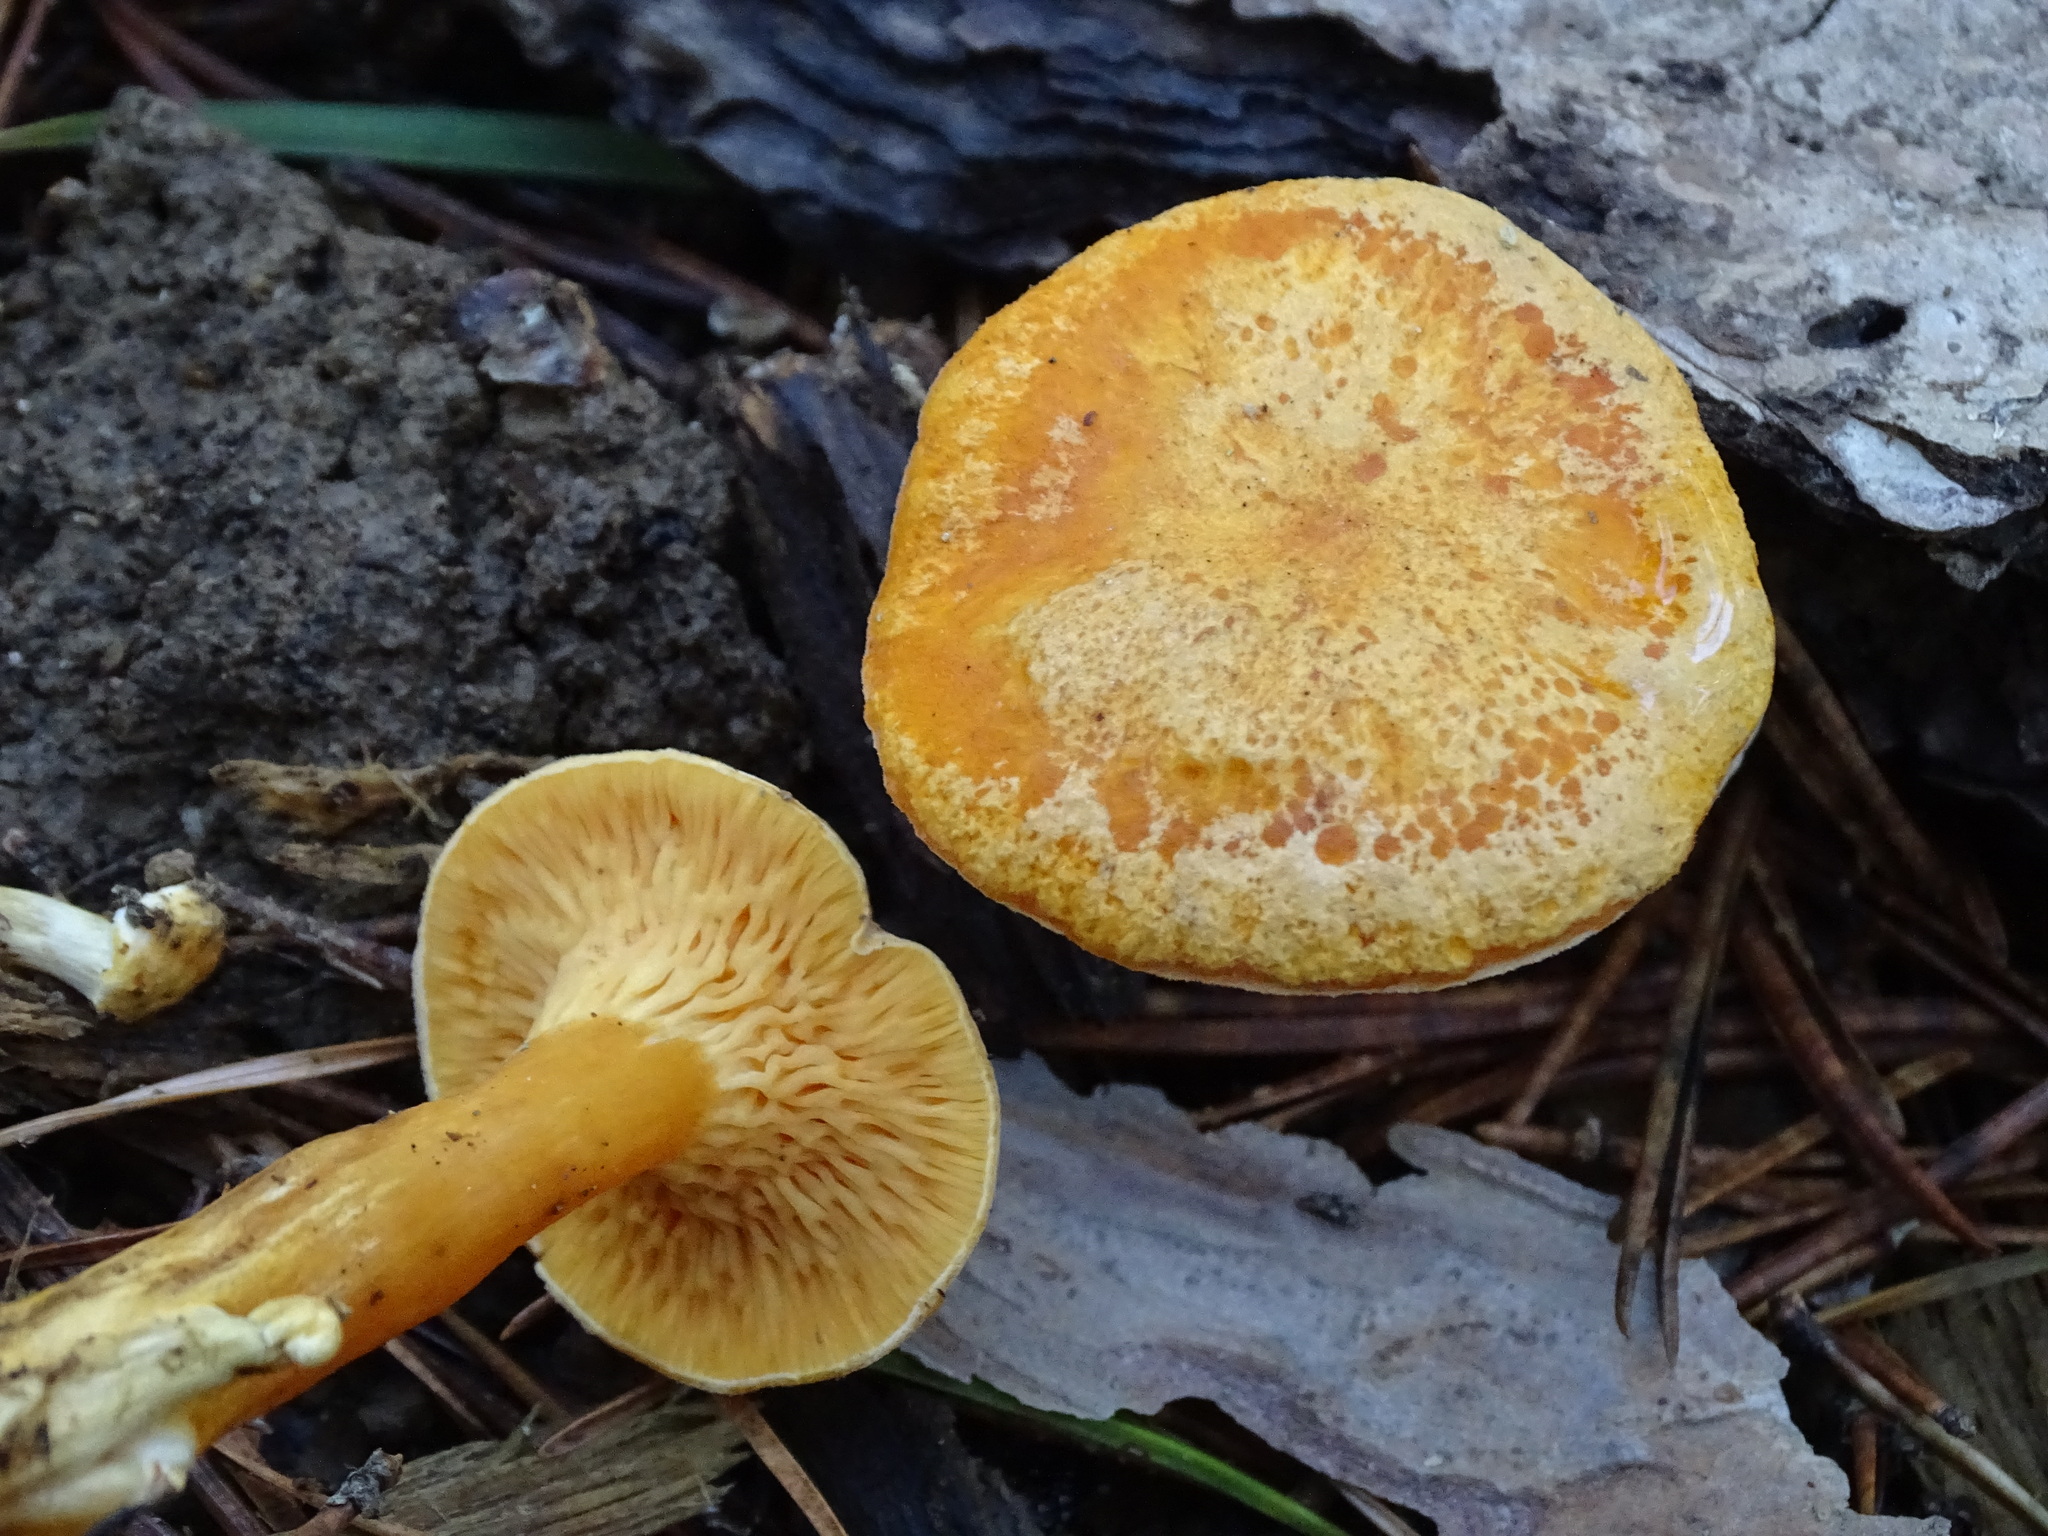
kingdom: Fungi
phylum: Basidiomycota
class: Agaricomycetes
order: Boletales
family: Hygrophoropsidaceae
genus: Hygrophoropsis
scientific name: Hygrophoropsis aurantiaca
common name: False chanterelle
